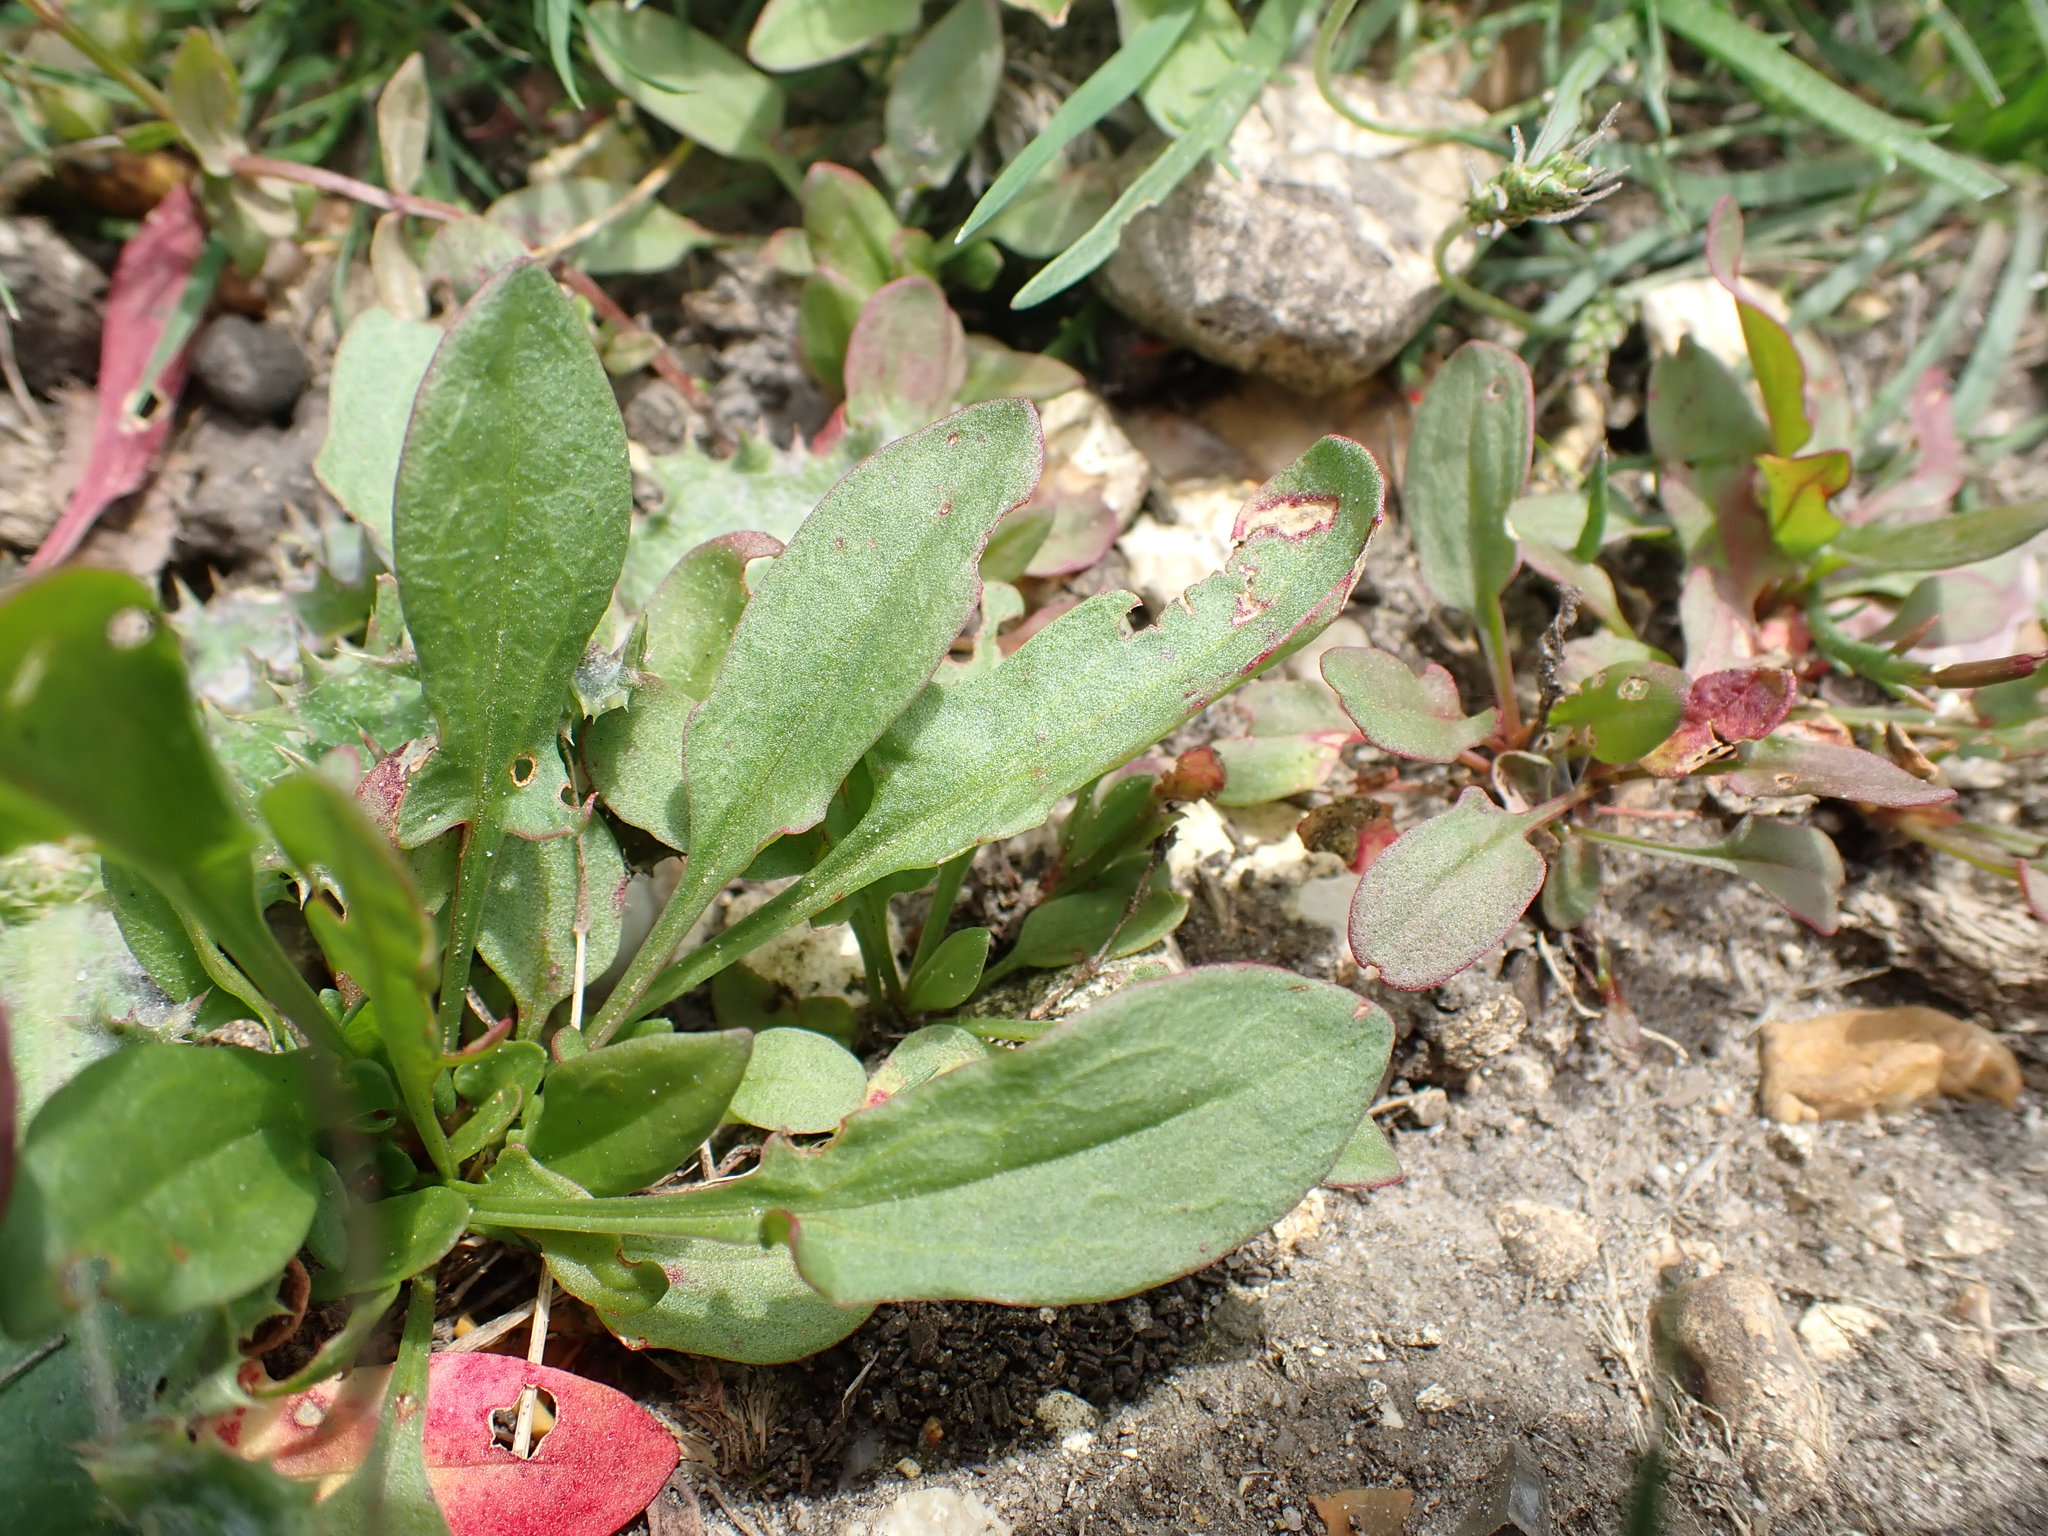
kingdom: Plantae
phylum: Tracheophyta
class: Magnoliopsida
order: Caryophyllales
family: Polygonaceae
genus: Rumex
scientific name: Rumex acetosella
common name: Common sheep sorrel
